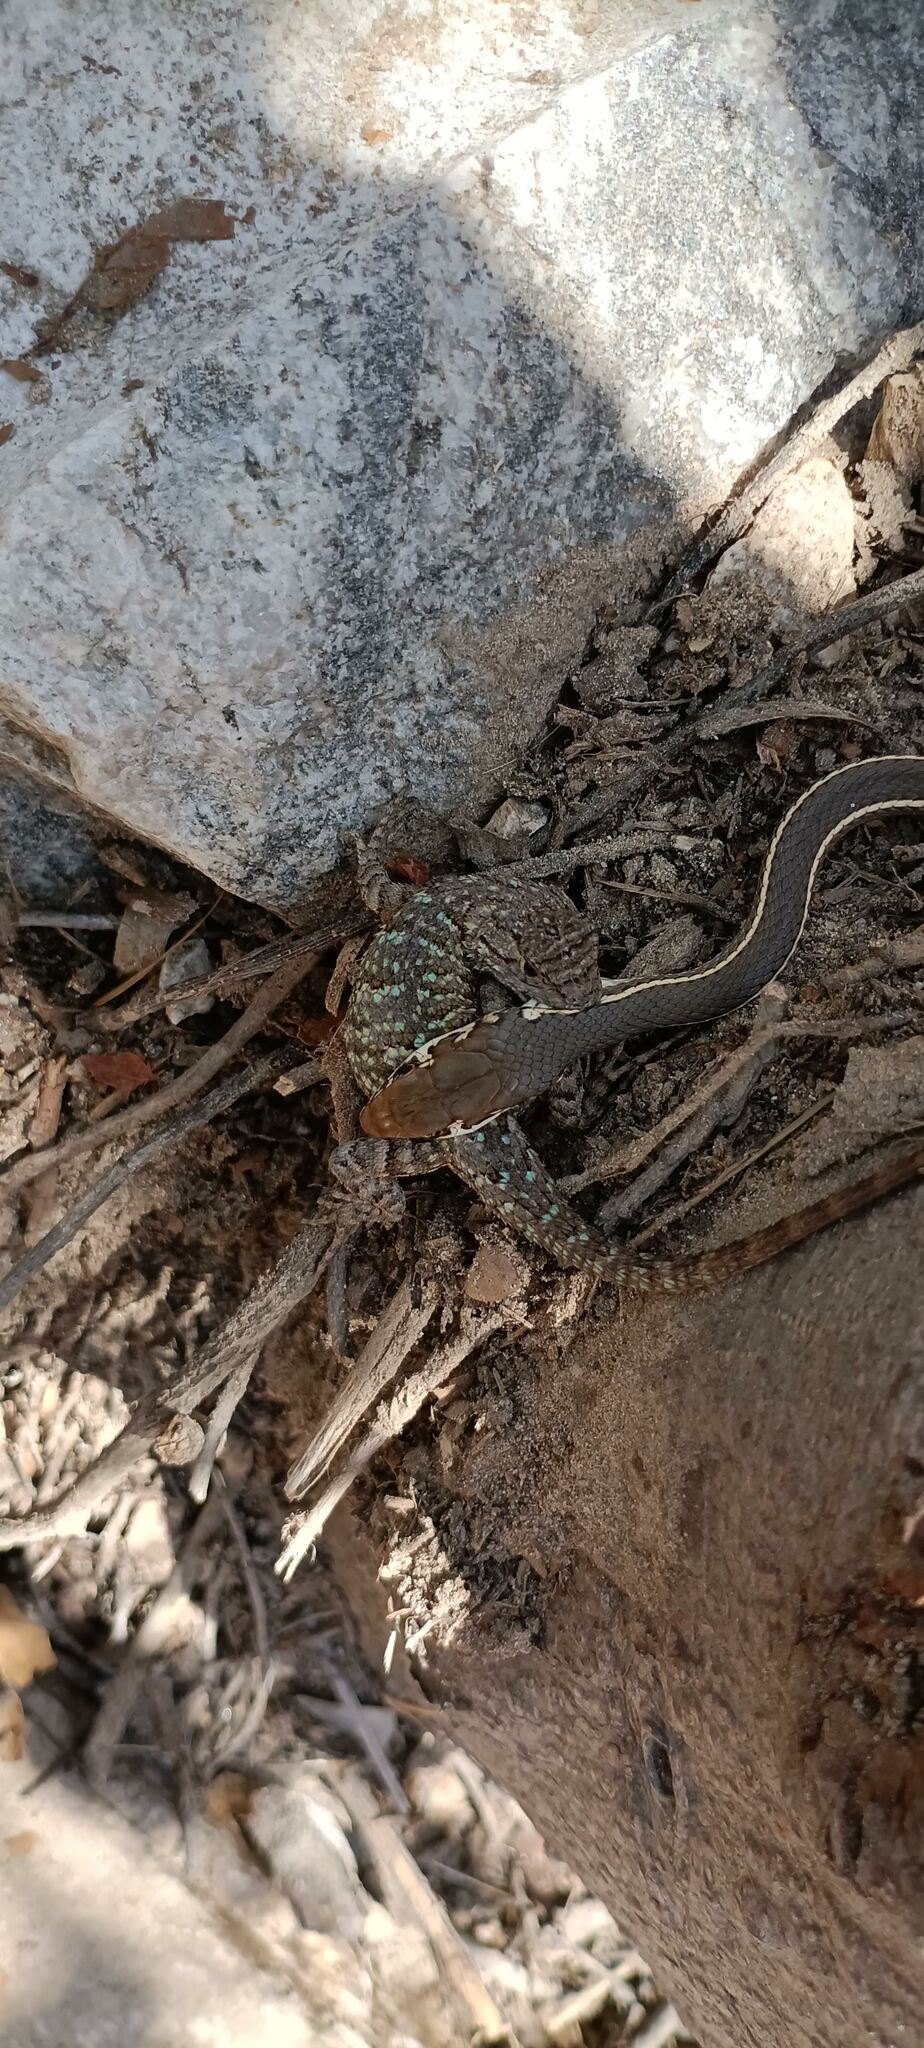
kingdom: Animalia
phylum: Chordata
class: Squamata
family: Colubridae
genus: Masticophis
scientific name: Masticophis lateralis
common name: Striped racer
